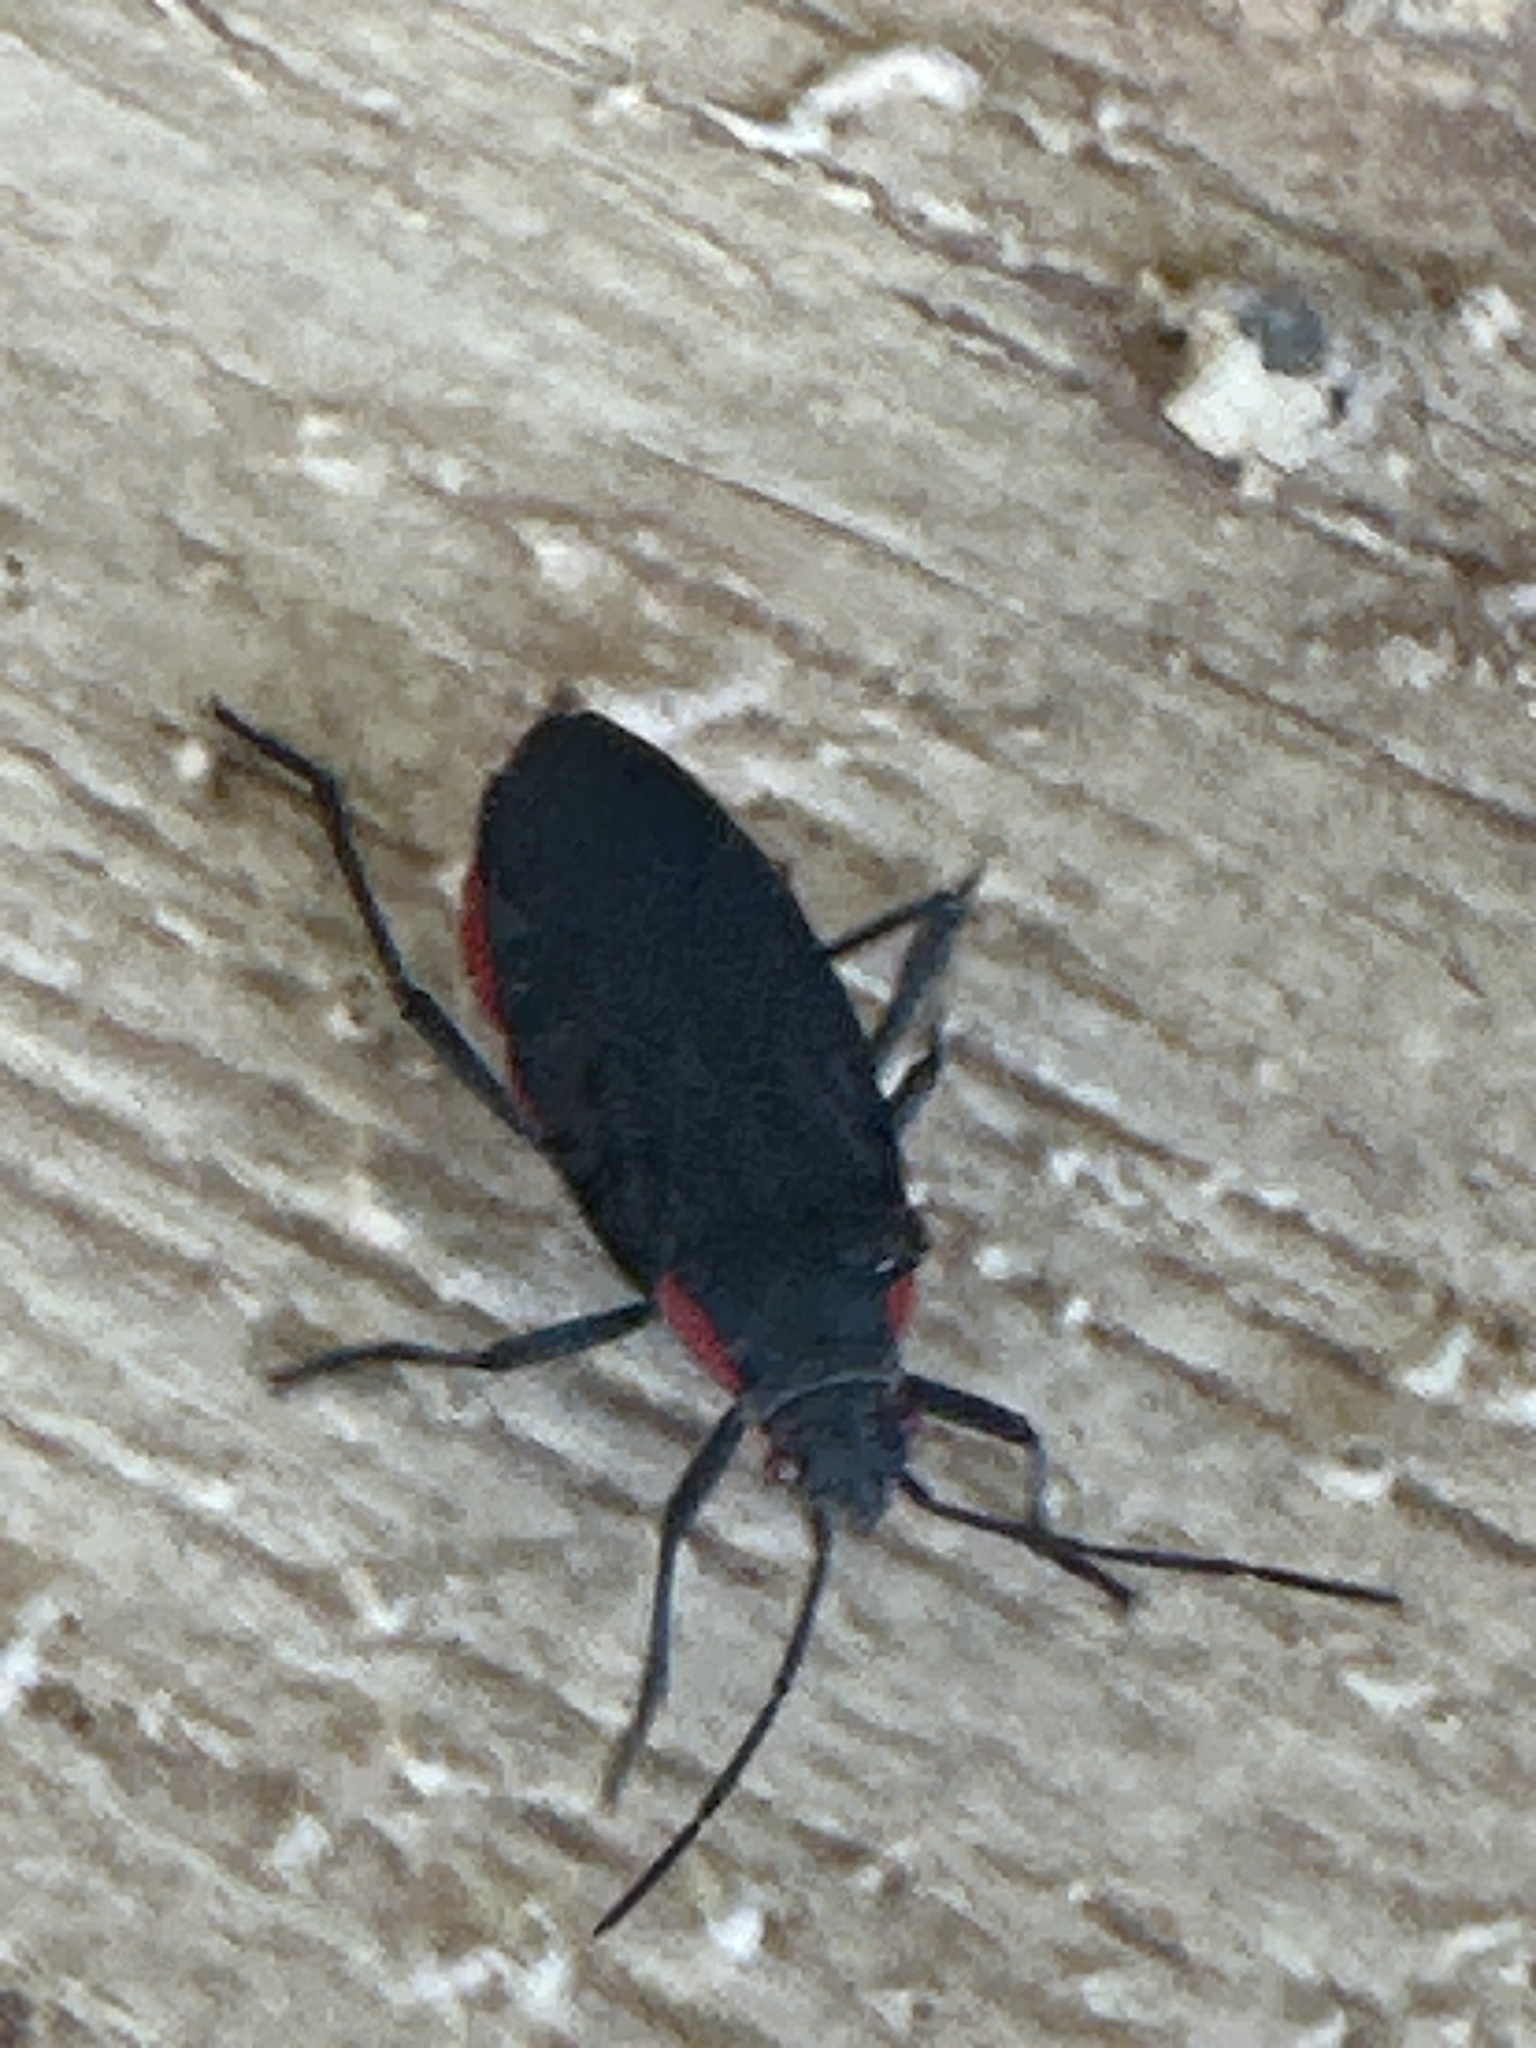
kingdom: Animalia
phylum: Arthropoda
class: Insecta
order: Hemiptera
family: Rhopalidae
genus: Jadera
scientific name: Jadera haematoloma
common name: Red-shouldered bug
